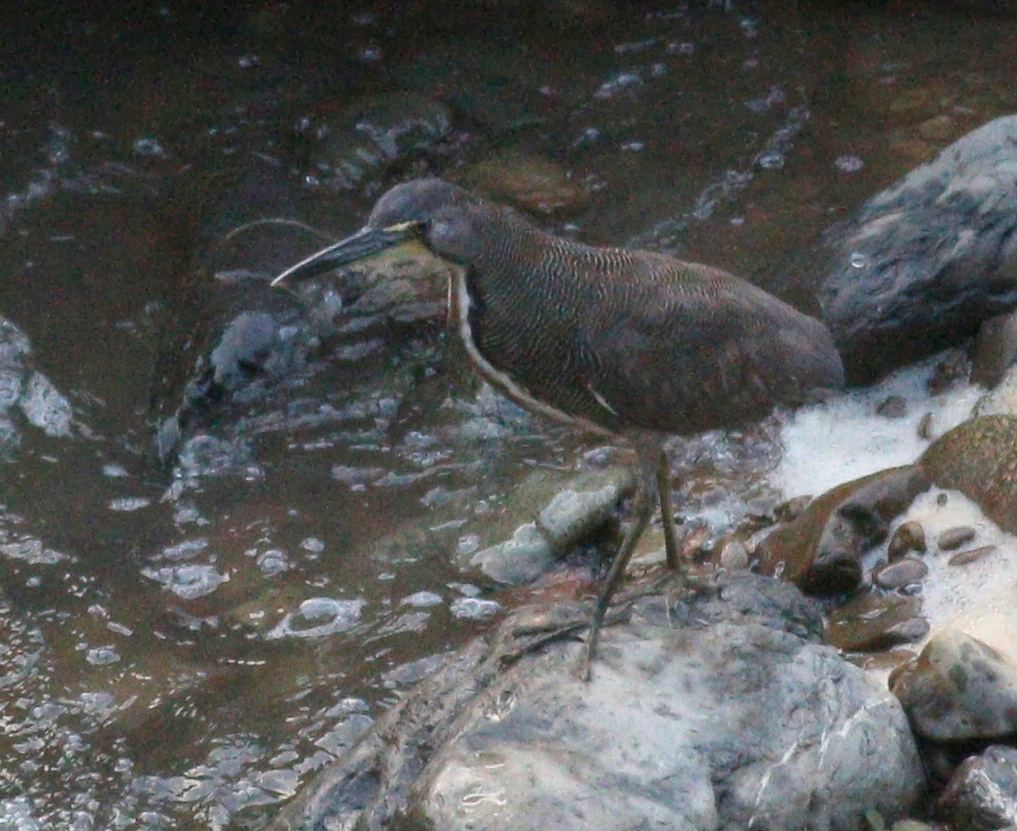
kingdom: Animalia
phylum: Chordata
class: Aves
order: Pelecaniformes
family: Ardeidae
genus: Tigrisoma
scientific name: Tigrisoma fasciatum
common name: Fasciated tiger-heron
